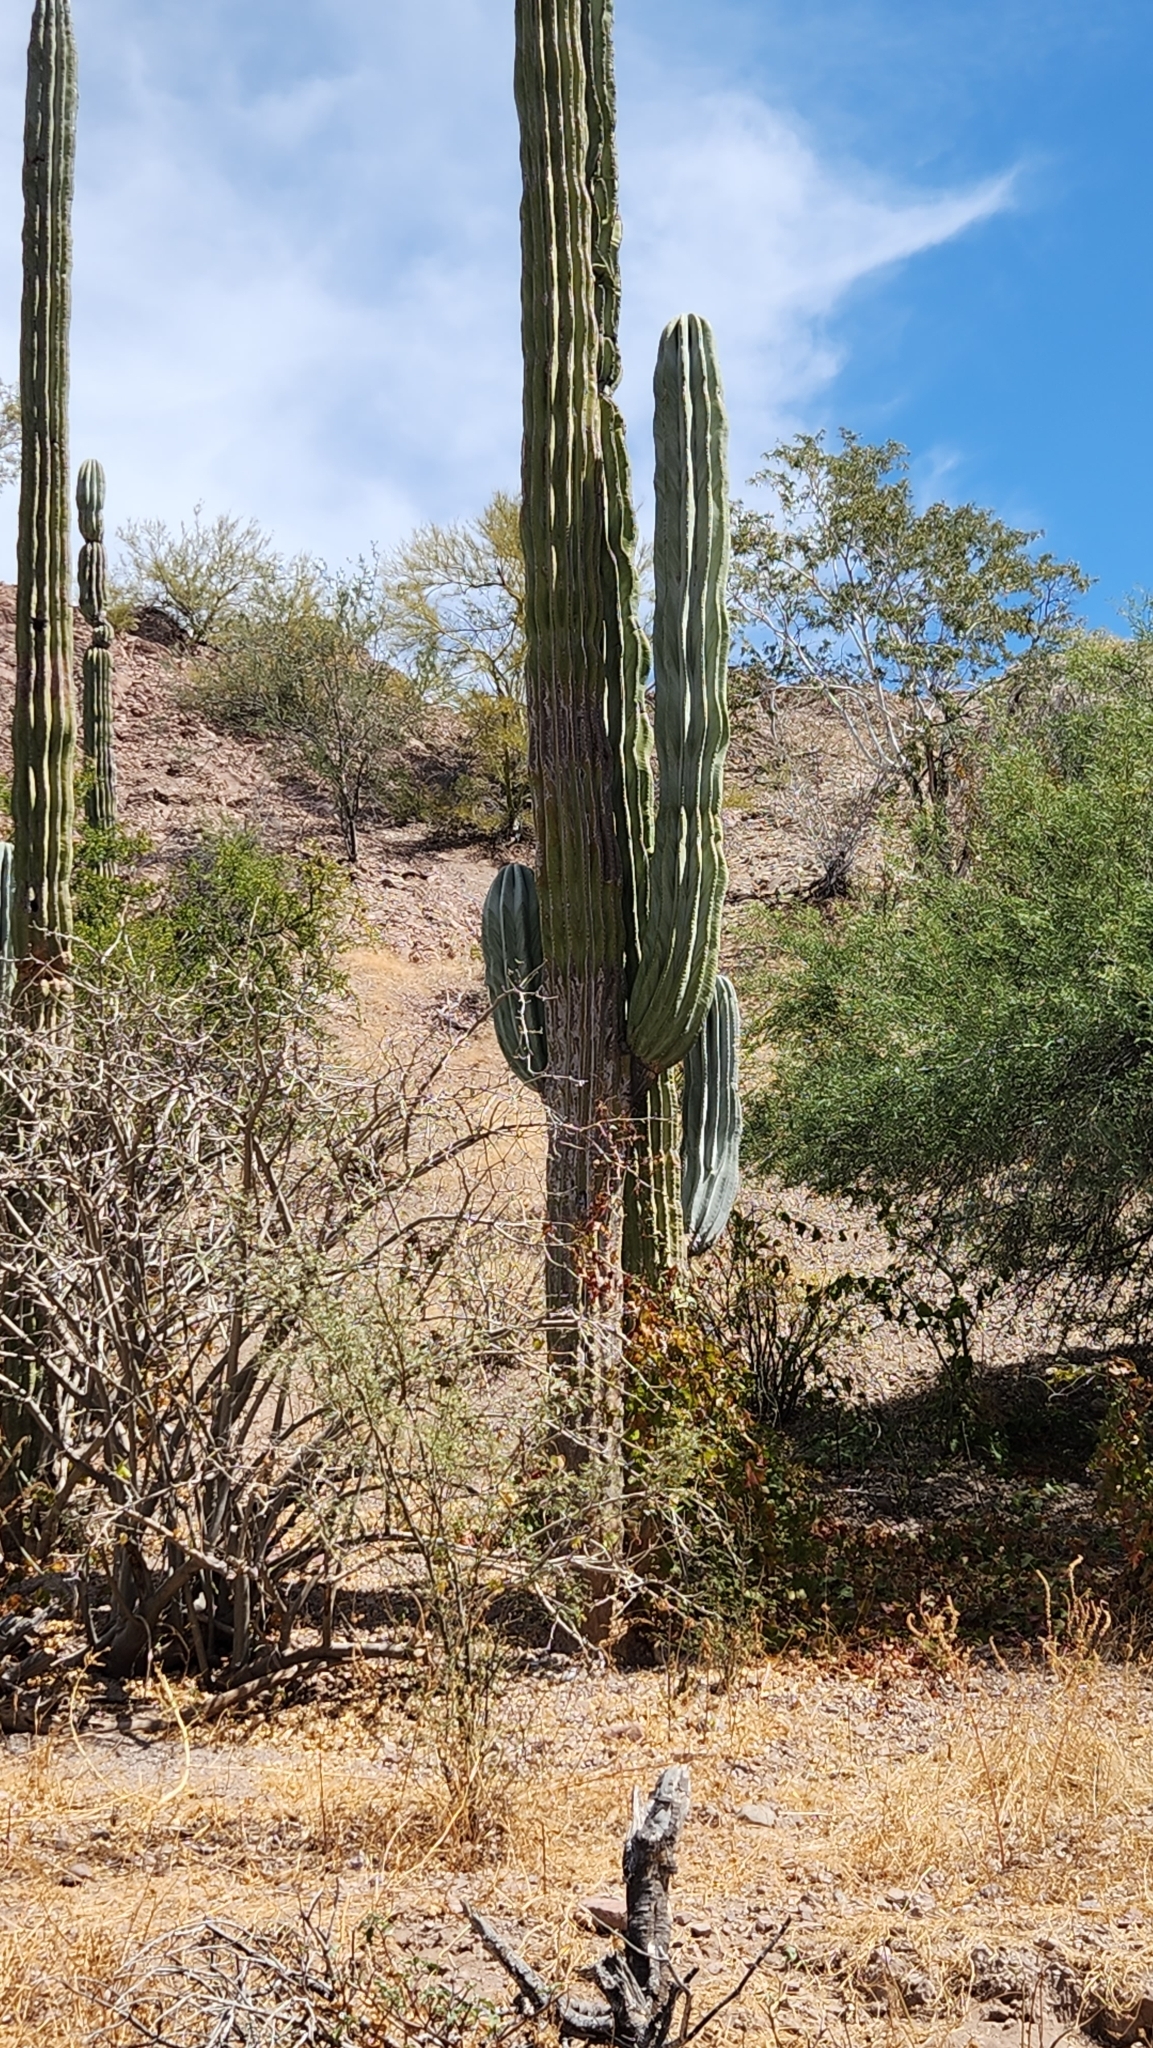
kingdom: Plantae
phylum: Tracheophyta
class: Magnoliopsida
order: Caryophyllales
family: Cactaceae
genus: Pachycereus
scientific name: Pachycereus pringlei
